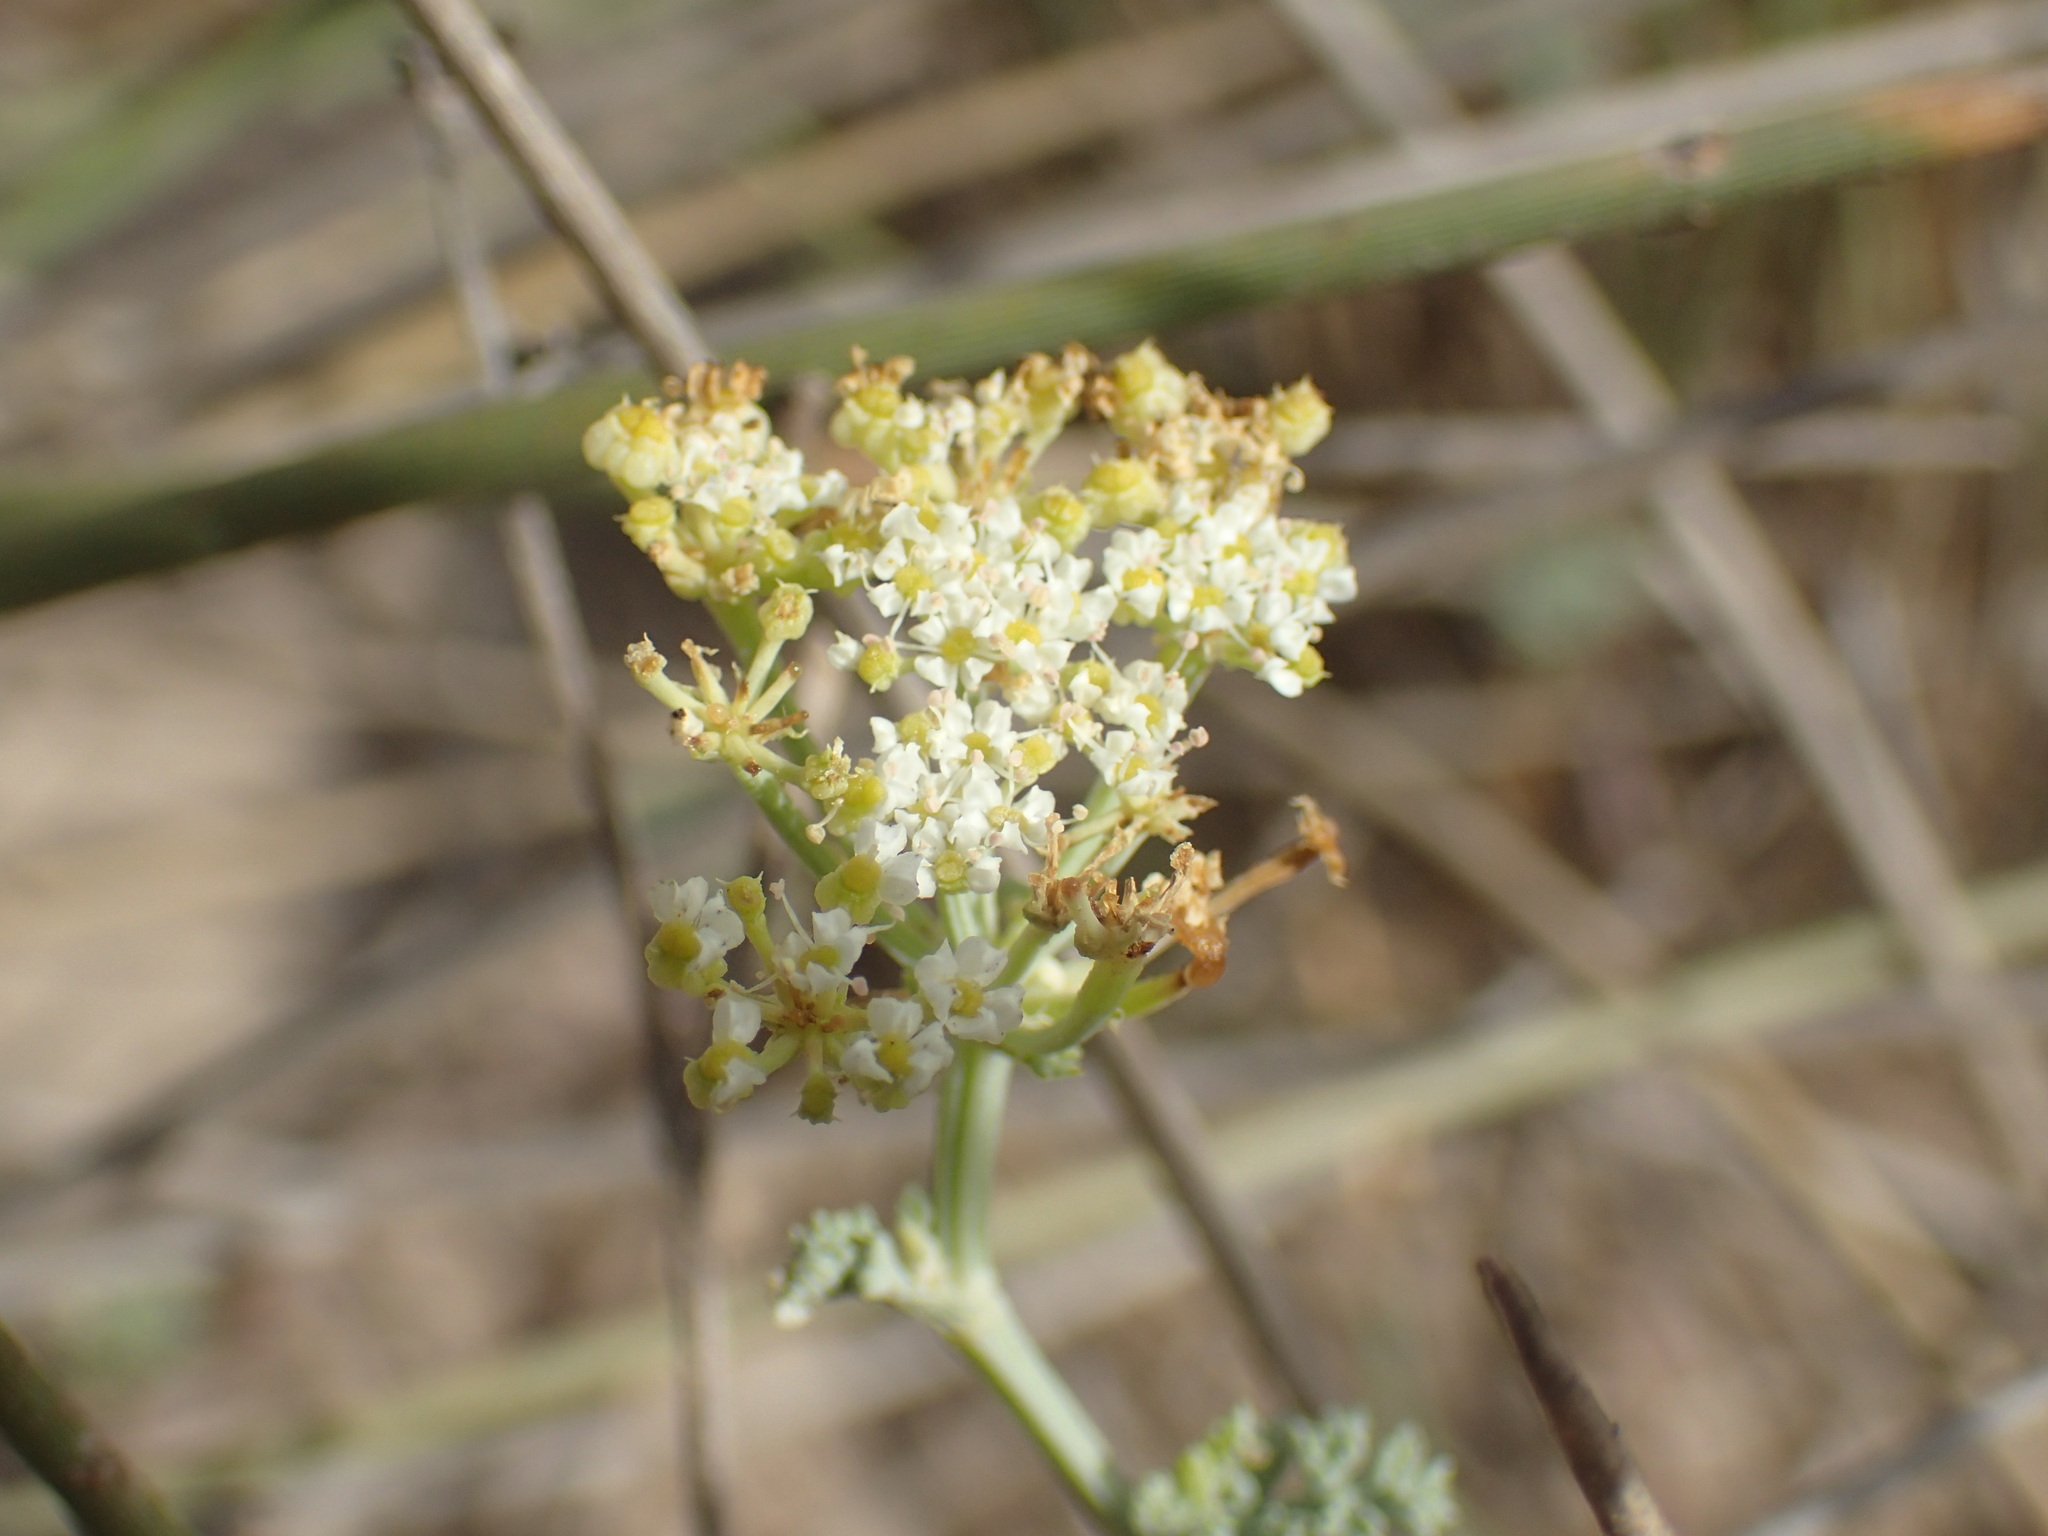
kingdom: Plantae
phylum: Tracheophyta
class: Magnoliopsida
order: Apiales
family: Apiaceae
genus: Dasispermum
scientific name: Dasispermum suffruticosum
